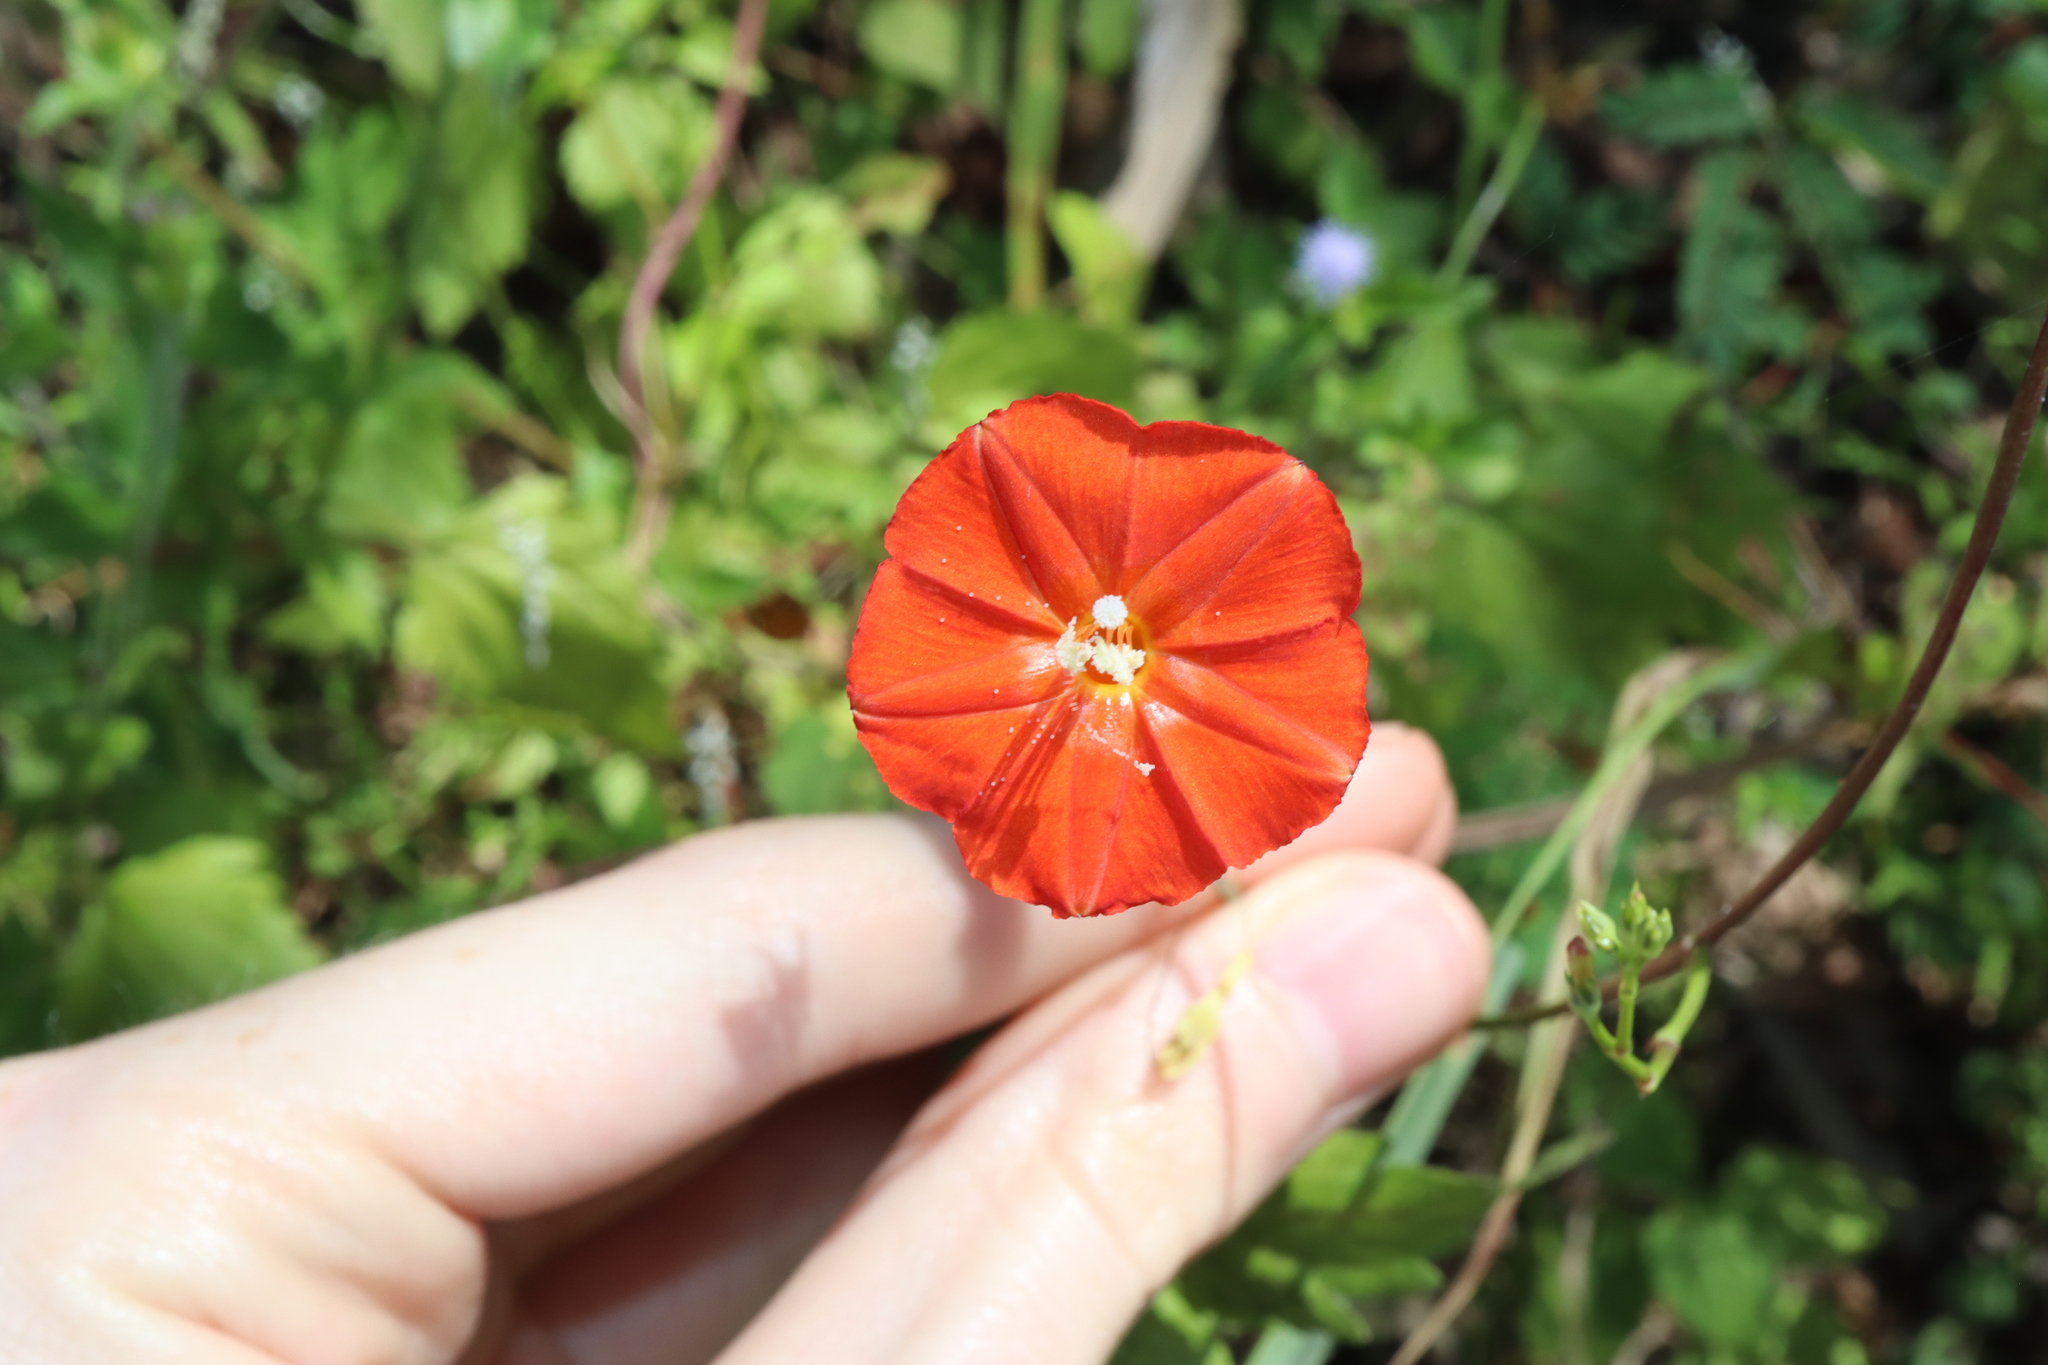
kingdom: Plantae
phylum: Tracheophyta
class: Magnoliopsida
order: Solanales
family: Convolvulaceae
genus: Ipomoea
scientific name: Ipomoea hederifolia
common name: Ivy-leaf morning-glory
